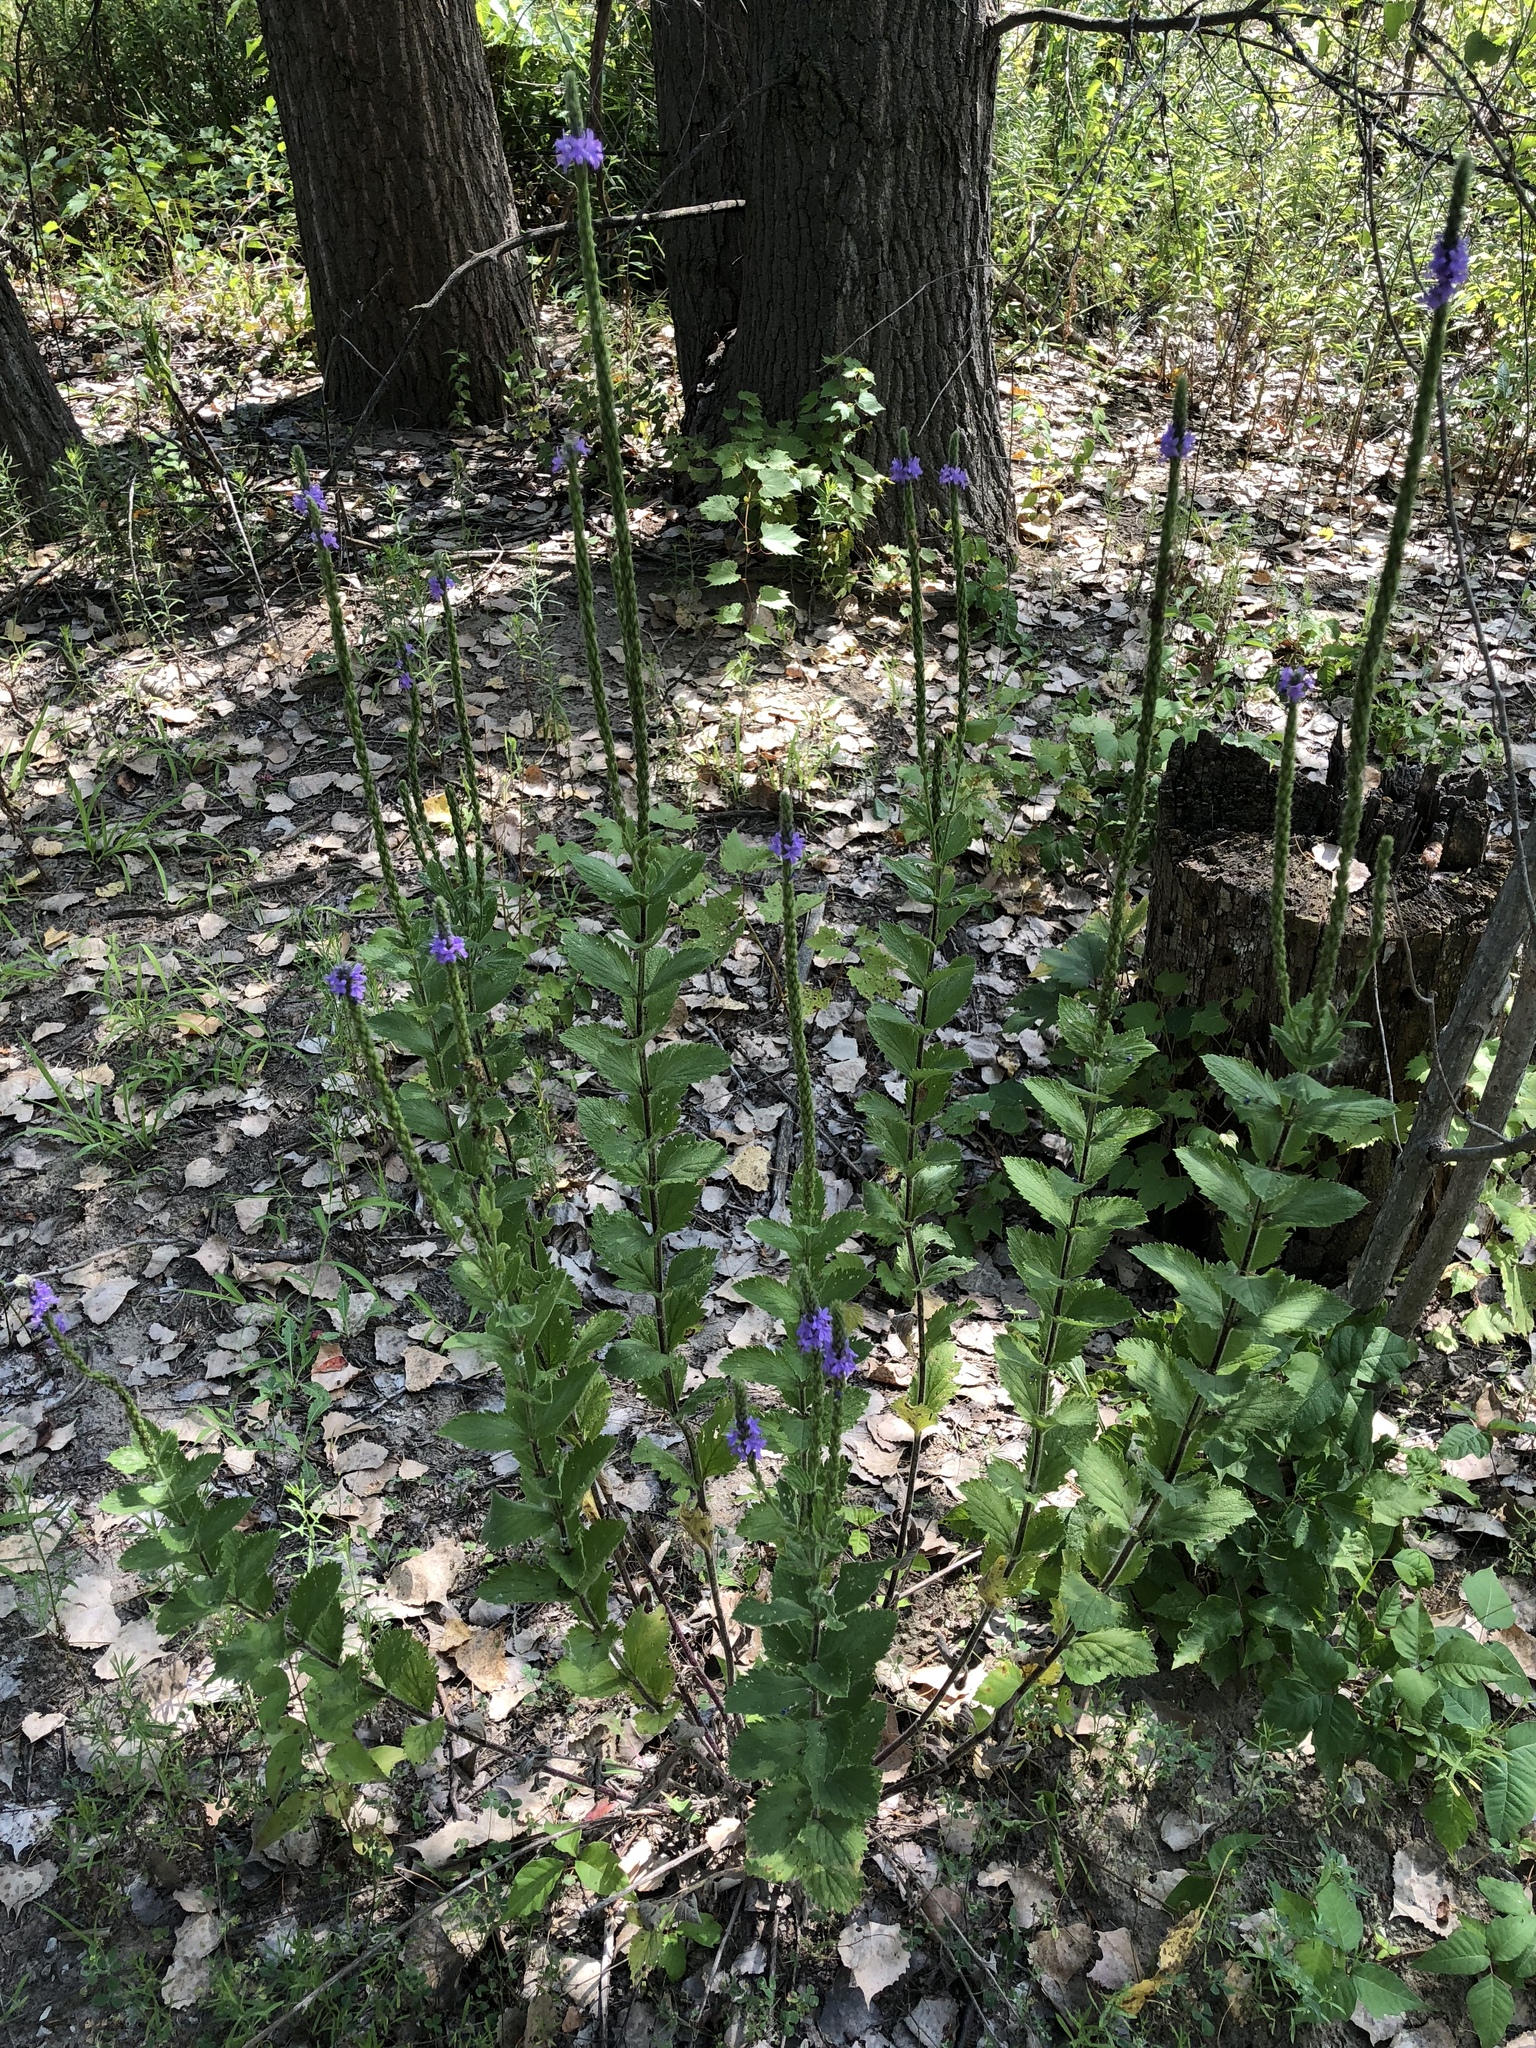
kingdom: Plantae
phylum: Tracheophyta
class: Magnoliopsida
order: Lamiales
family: Verbenaceae
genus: Verbena
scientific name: Verbena stricta
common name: Hoary vervain
